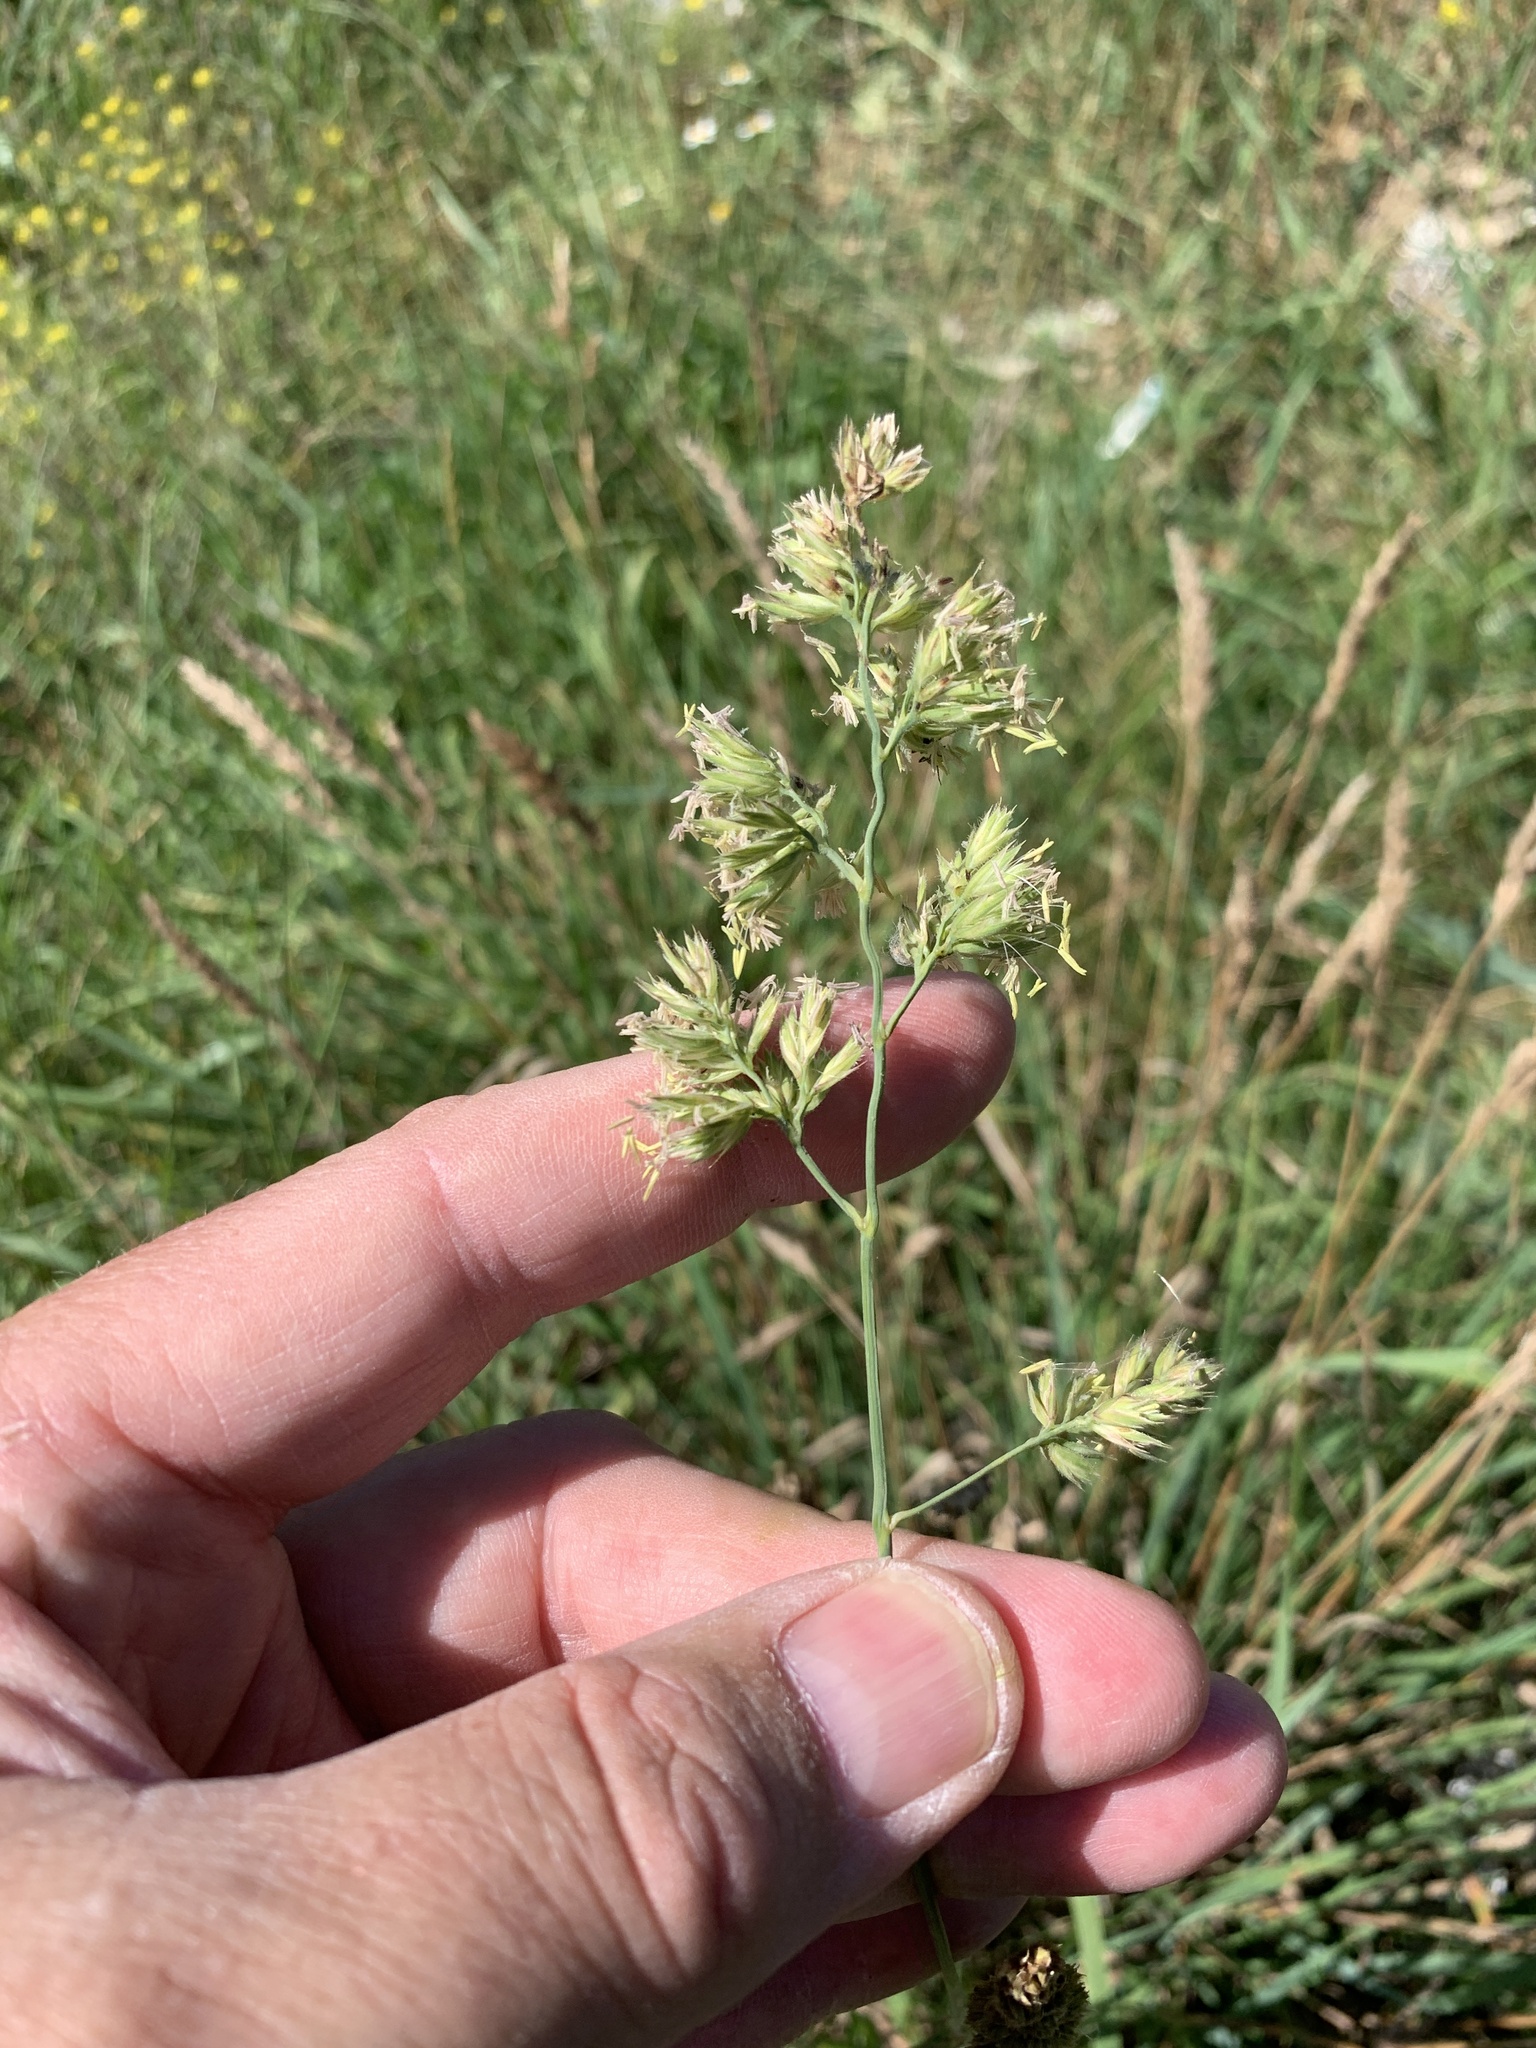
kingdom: Plantae
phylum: Tracheophyta
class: Liliopsida
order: Poales
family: Poaceae
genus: Dactylis
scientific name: Dactylis glomerata
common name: Orchardgrass
